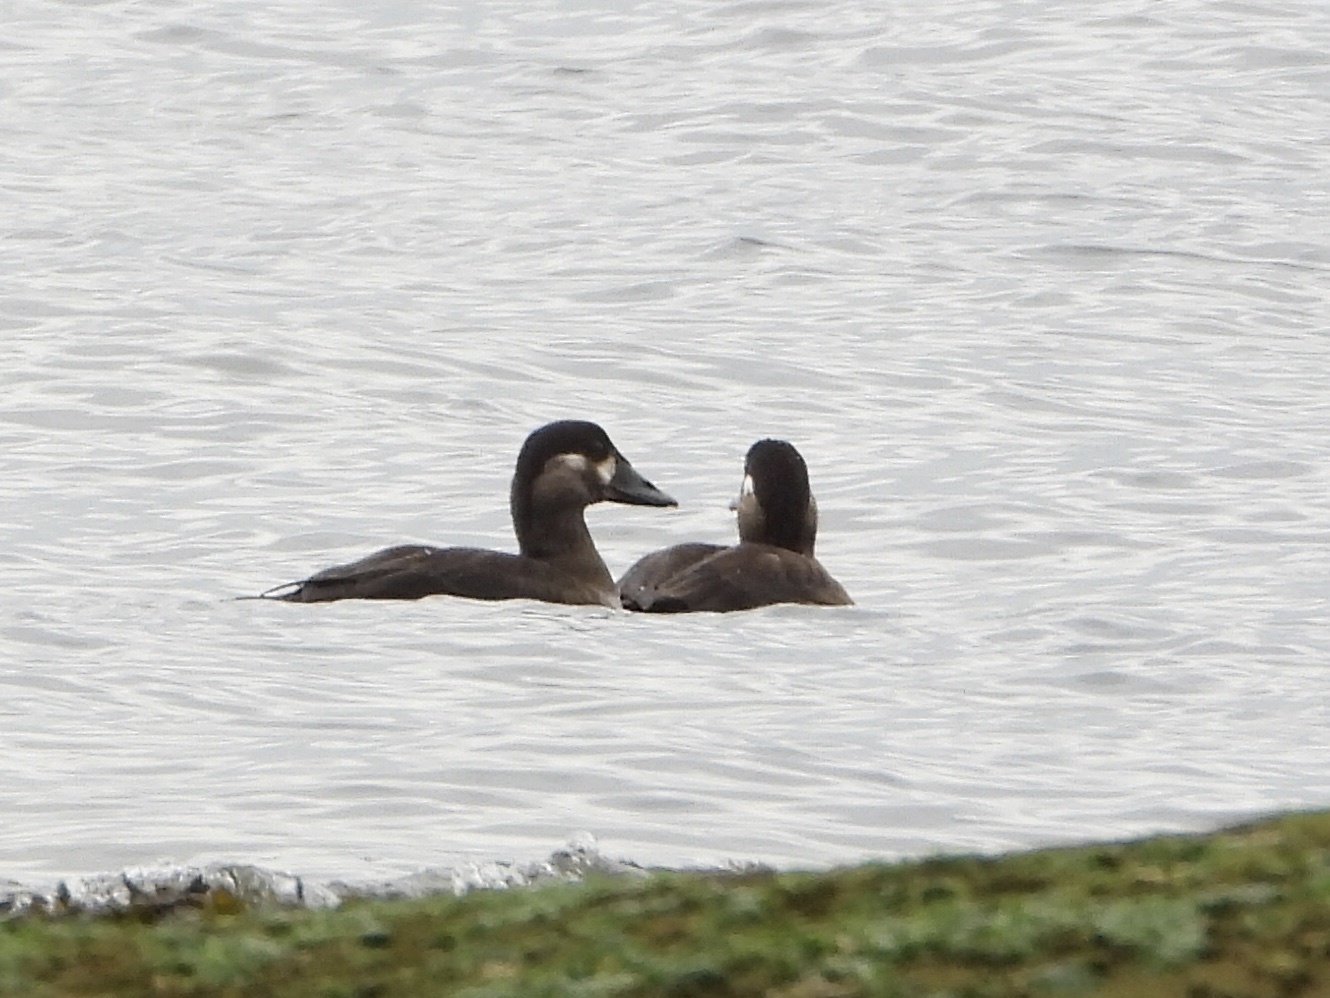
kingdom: Animalia
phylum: Chordata
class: Aves
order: Anseriformes
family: Anatidae
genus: Melanitta
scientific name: Melanitta perspicillata
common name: Surf scoter
